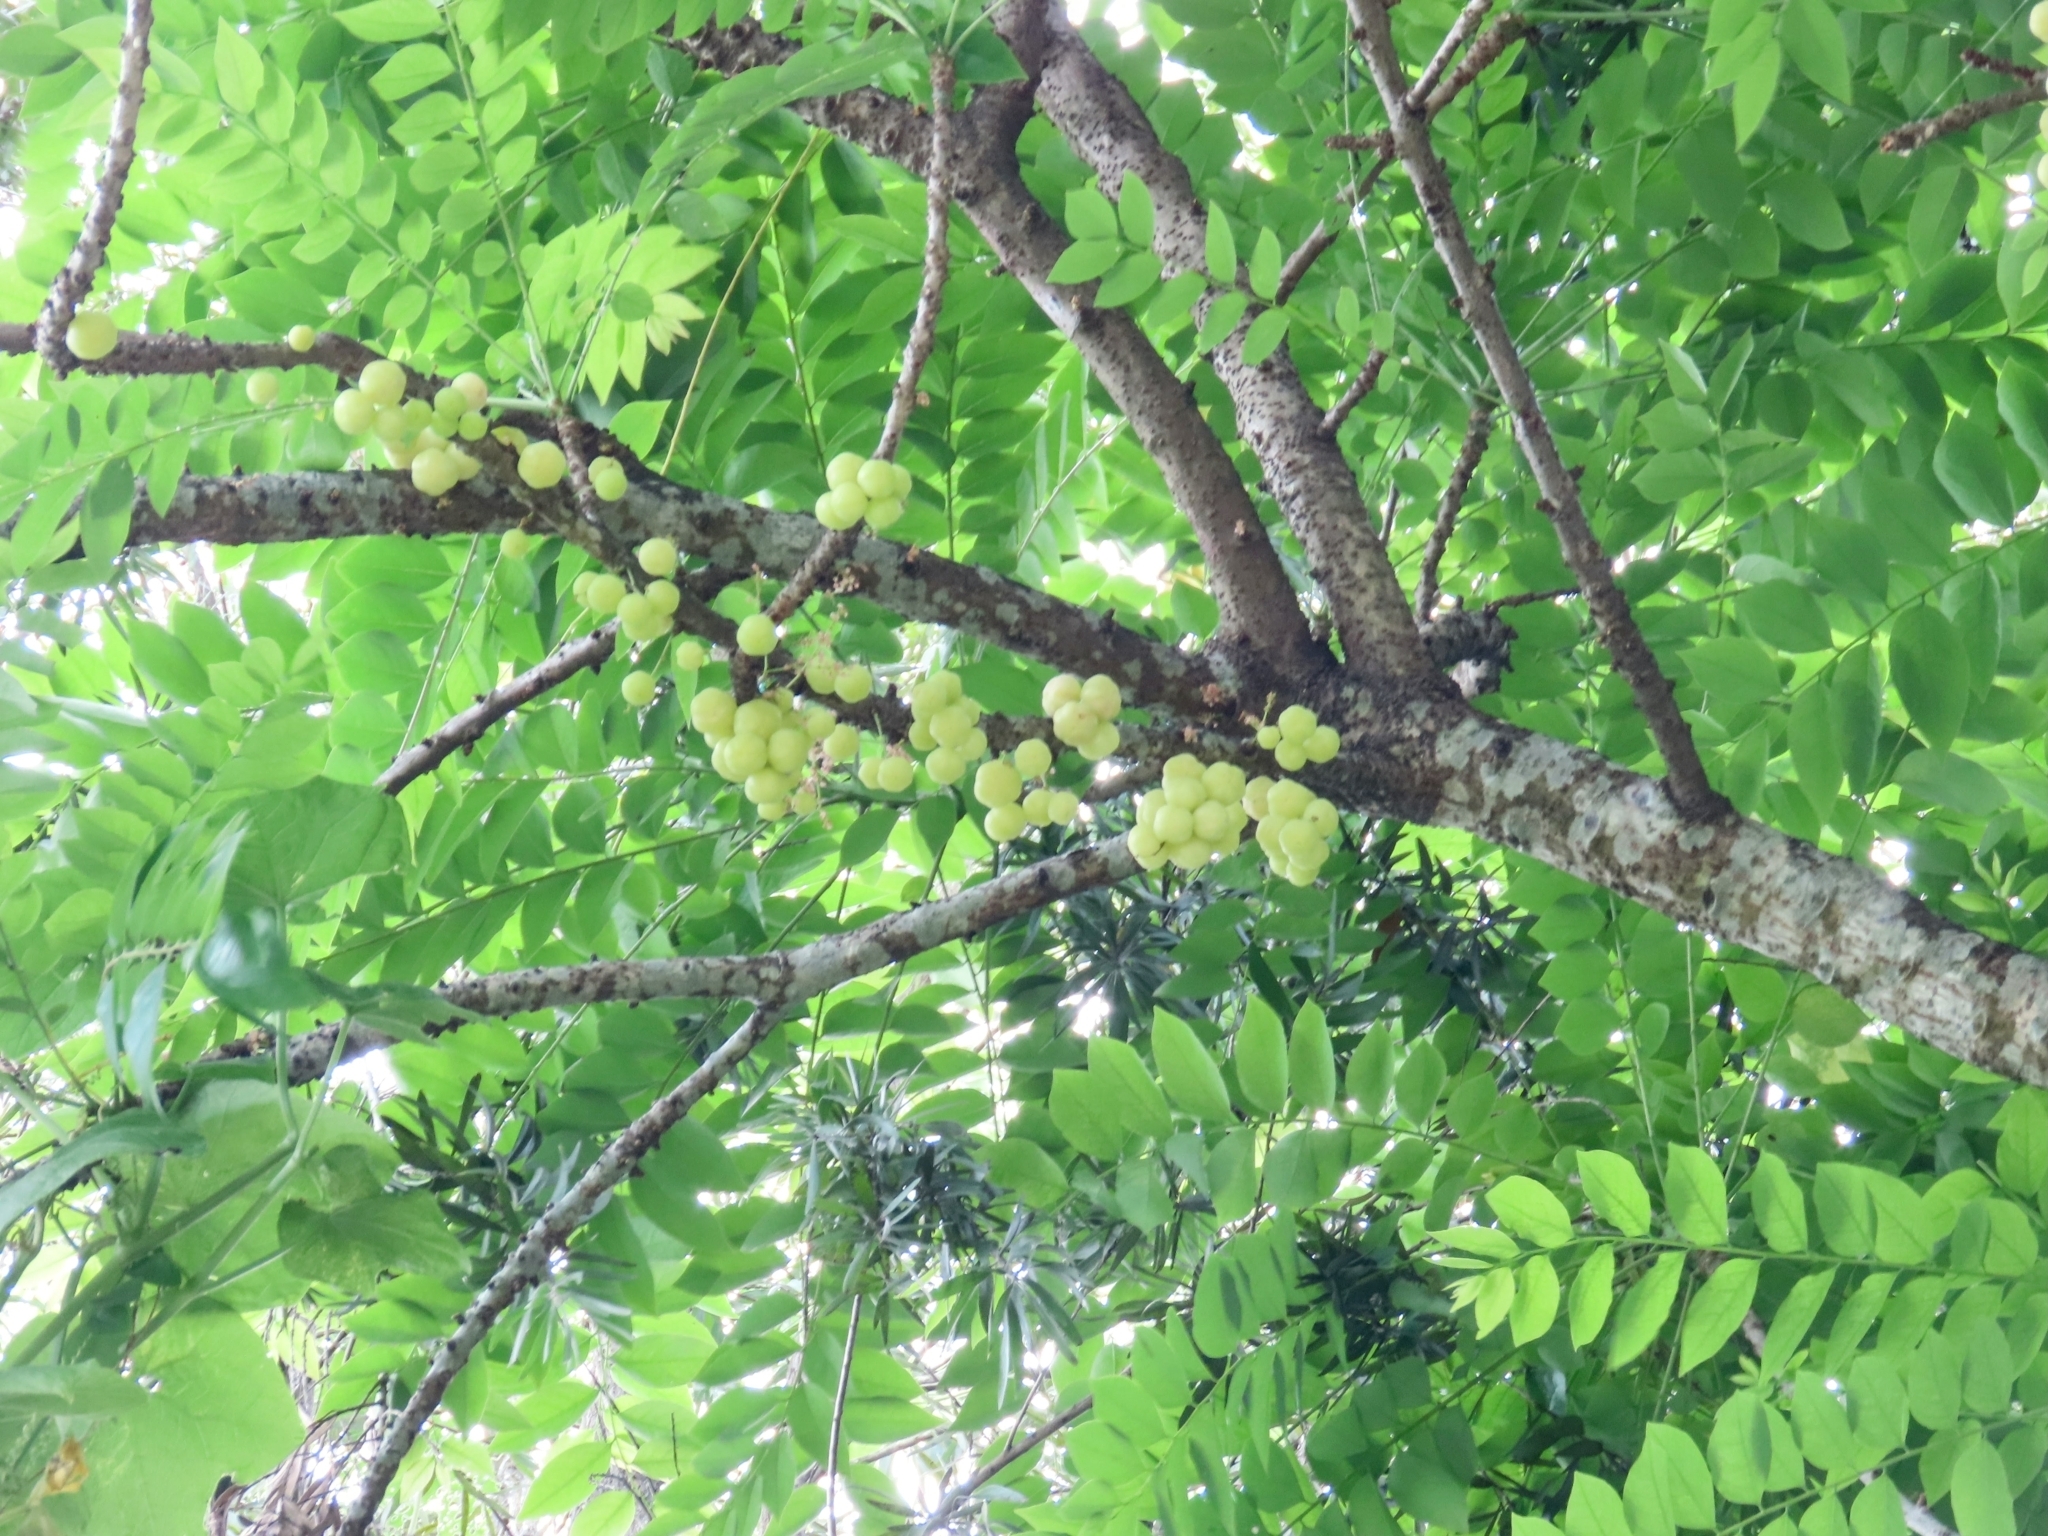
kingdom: Plantae
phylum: Tracheophyta
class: Magnoliopsida
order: Malpighiales
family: Phyllanthaceae
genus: Phyllanthus
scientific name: Phyllanthus acidus
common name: Tahitian gooseberry tree
